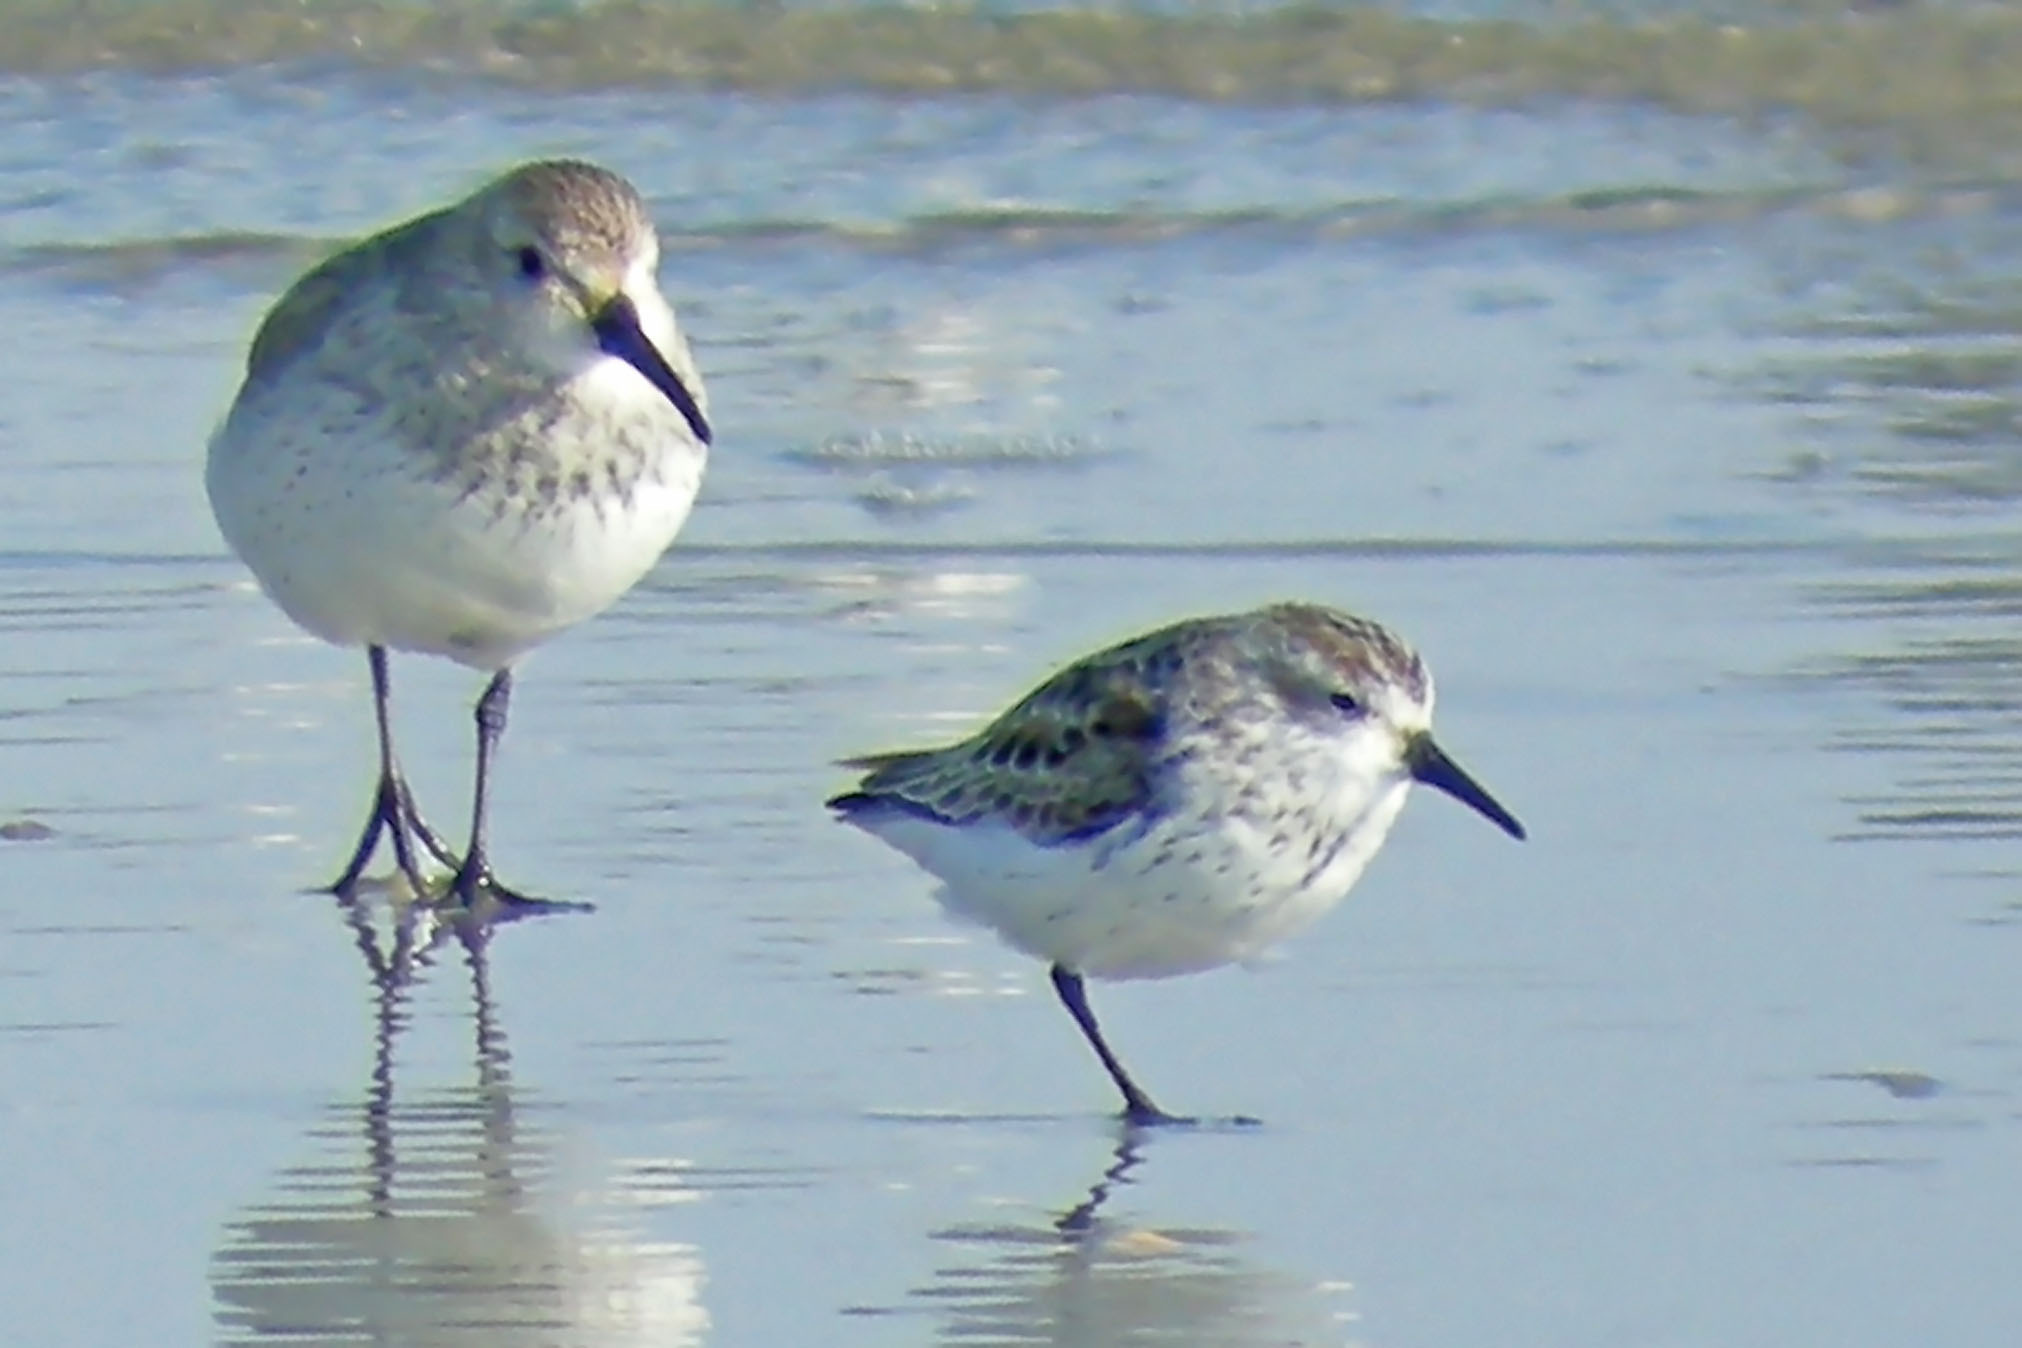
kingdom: Animalia
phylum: Chordata
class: Aves
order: Charadriiformes
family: Scolopacidae
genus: Calidris
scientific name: Calidris mauri
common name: Western sandpiper
